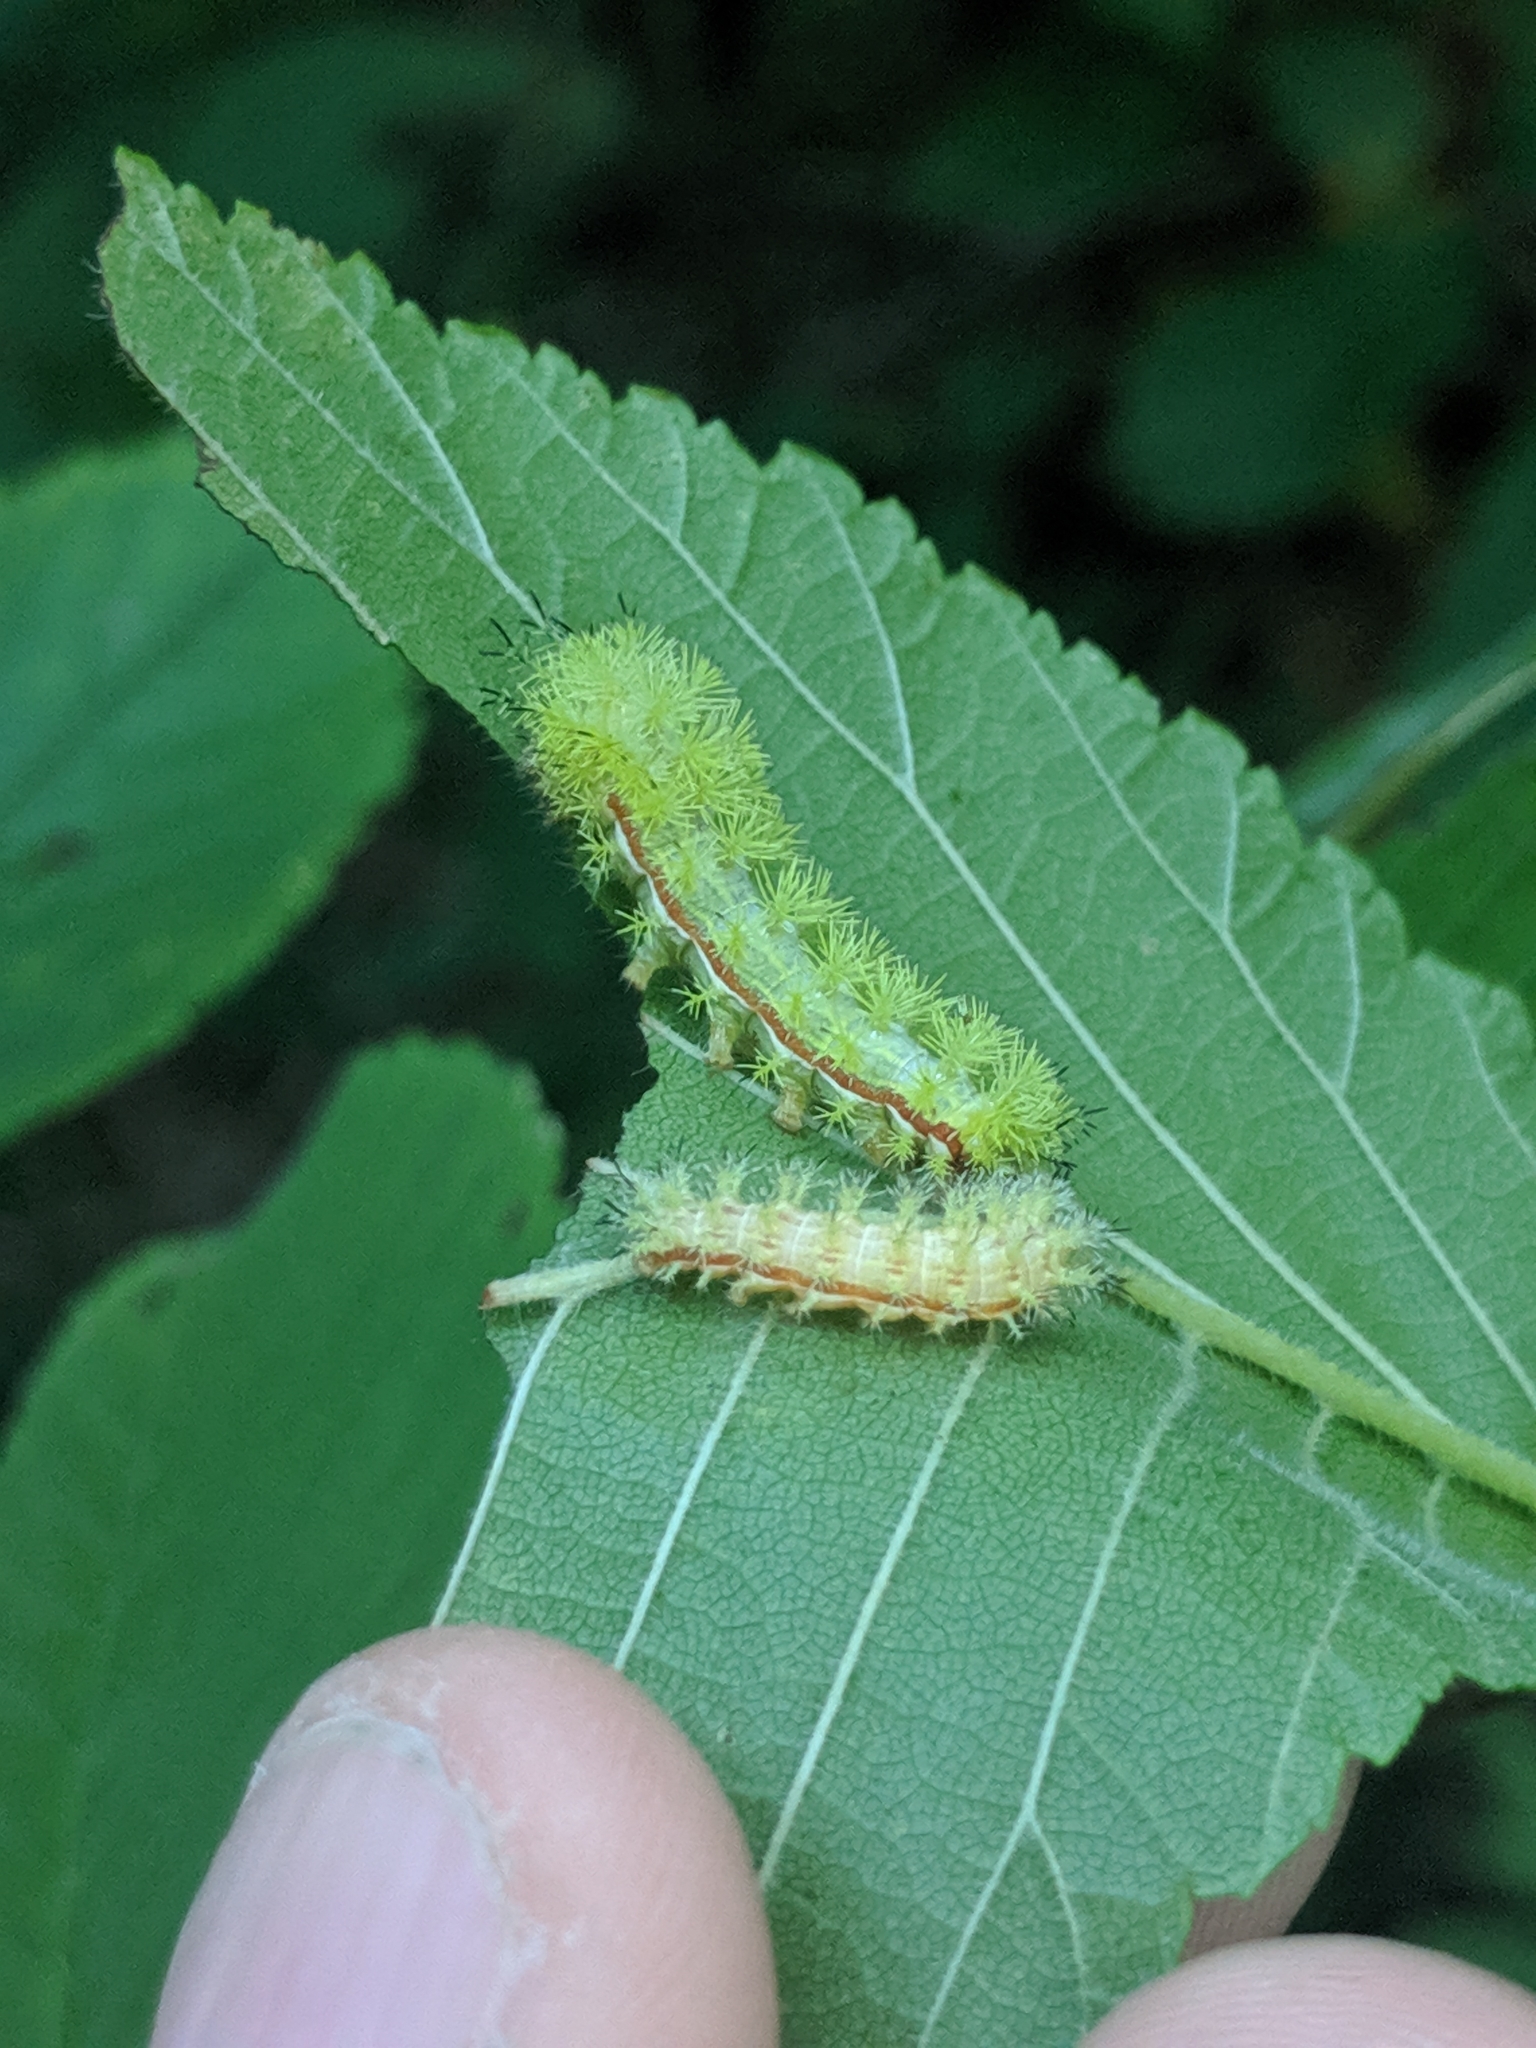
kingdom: Animalia
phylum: Arthropoda
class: Insecta
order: Lepidoptera
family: Saturniidae
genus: Automeris
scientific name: Automeris io
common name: Io moth
